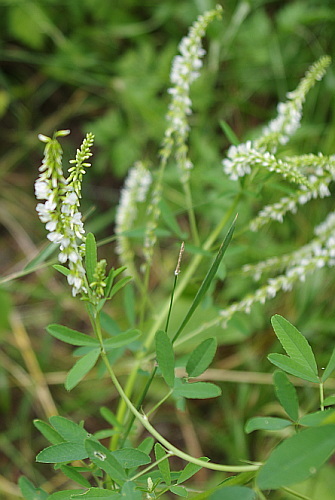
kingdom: Plantae
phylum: Tracheophyta
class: Magnoliopsida
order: Fabales
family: Fabaceae
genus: Melilotus
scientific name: Melilotus albus
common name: White melilot
